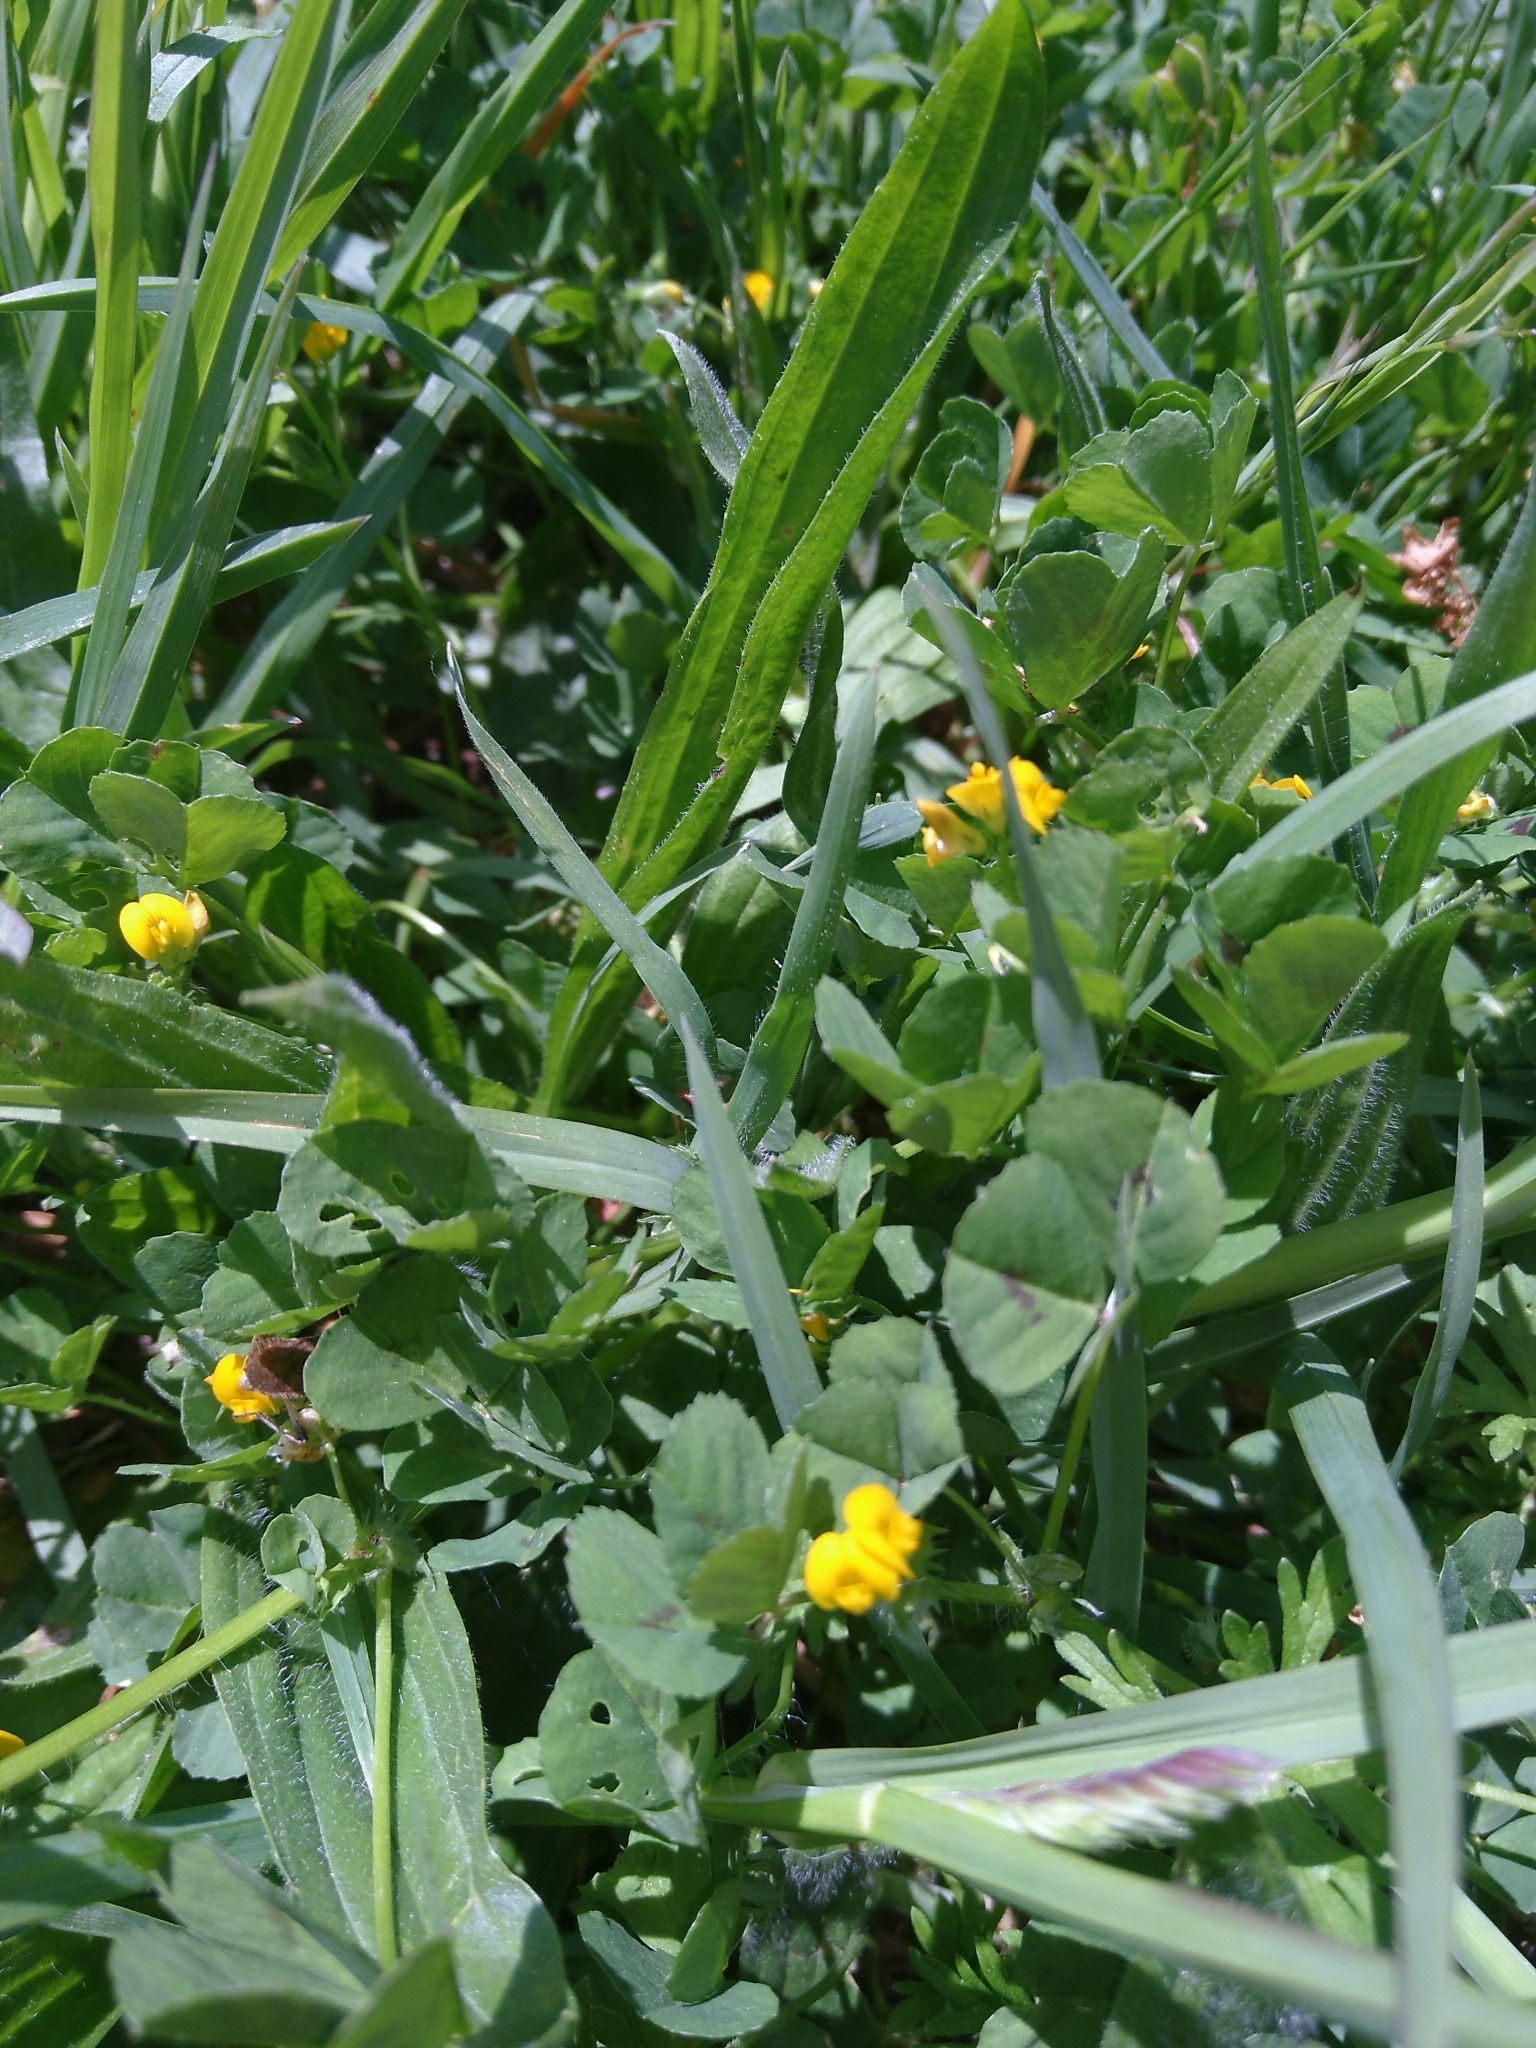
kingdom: Plantae
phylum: Tracheophyta
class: Magnoliopsida
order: Fabales
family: Fabaceae
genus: Medicago
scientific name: Medicago arabica
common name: Spotted medick
